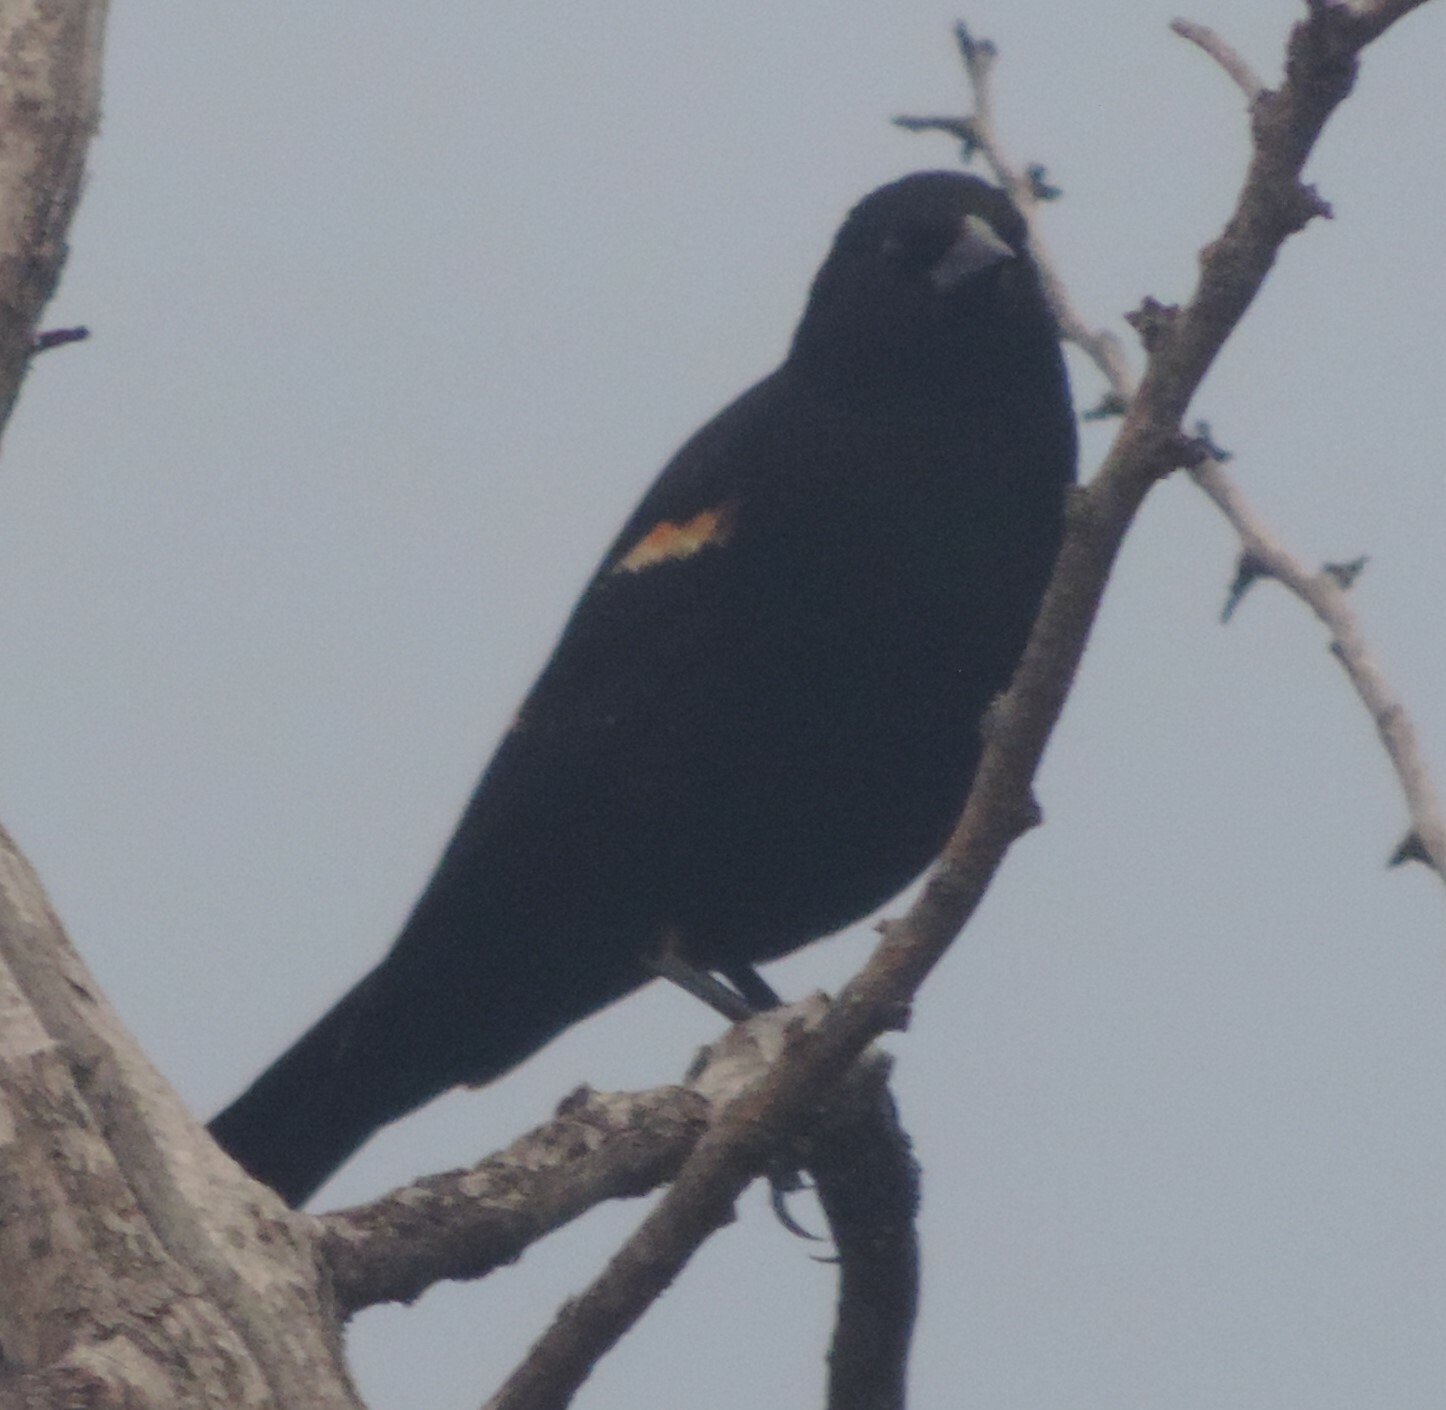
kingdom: Animalia
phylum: Chordata
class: Aves
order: Passeriformes
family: Icteridae
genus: Agelaius
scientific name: Agelaius phoeniceus
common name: Red-winged blackbird
